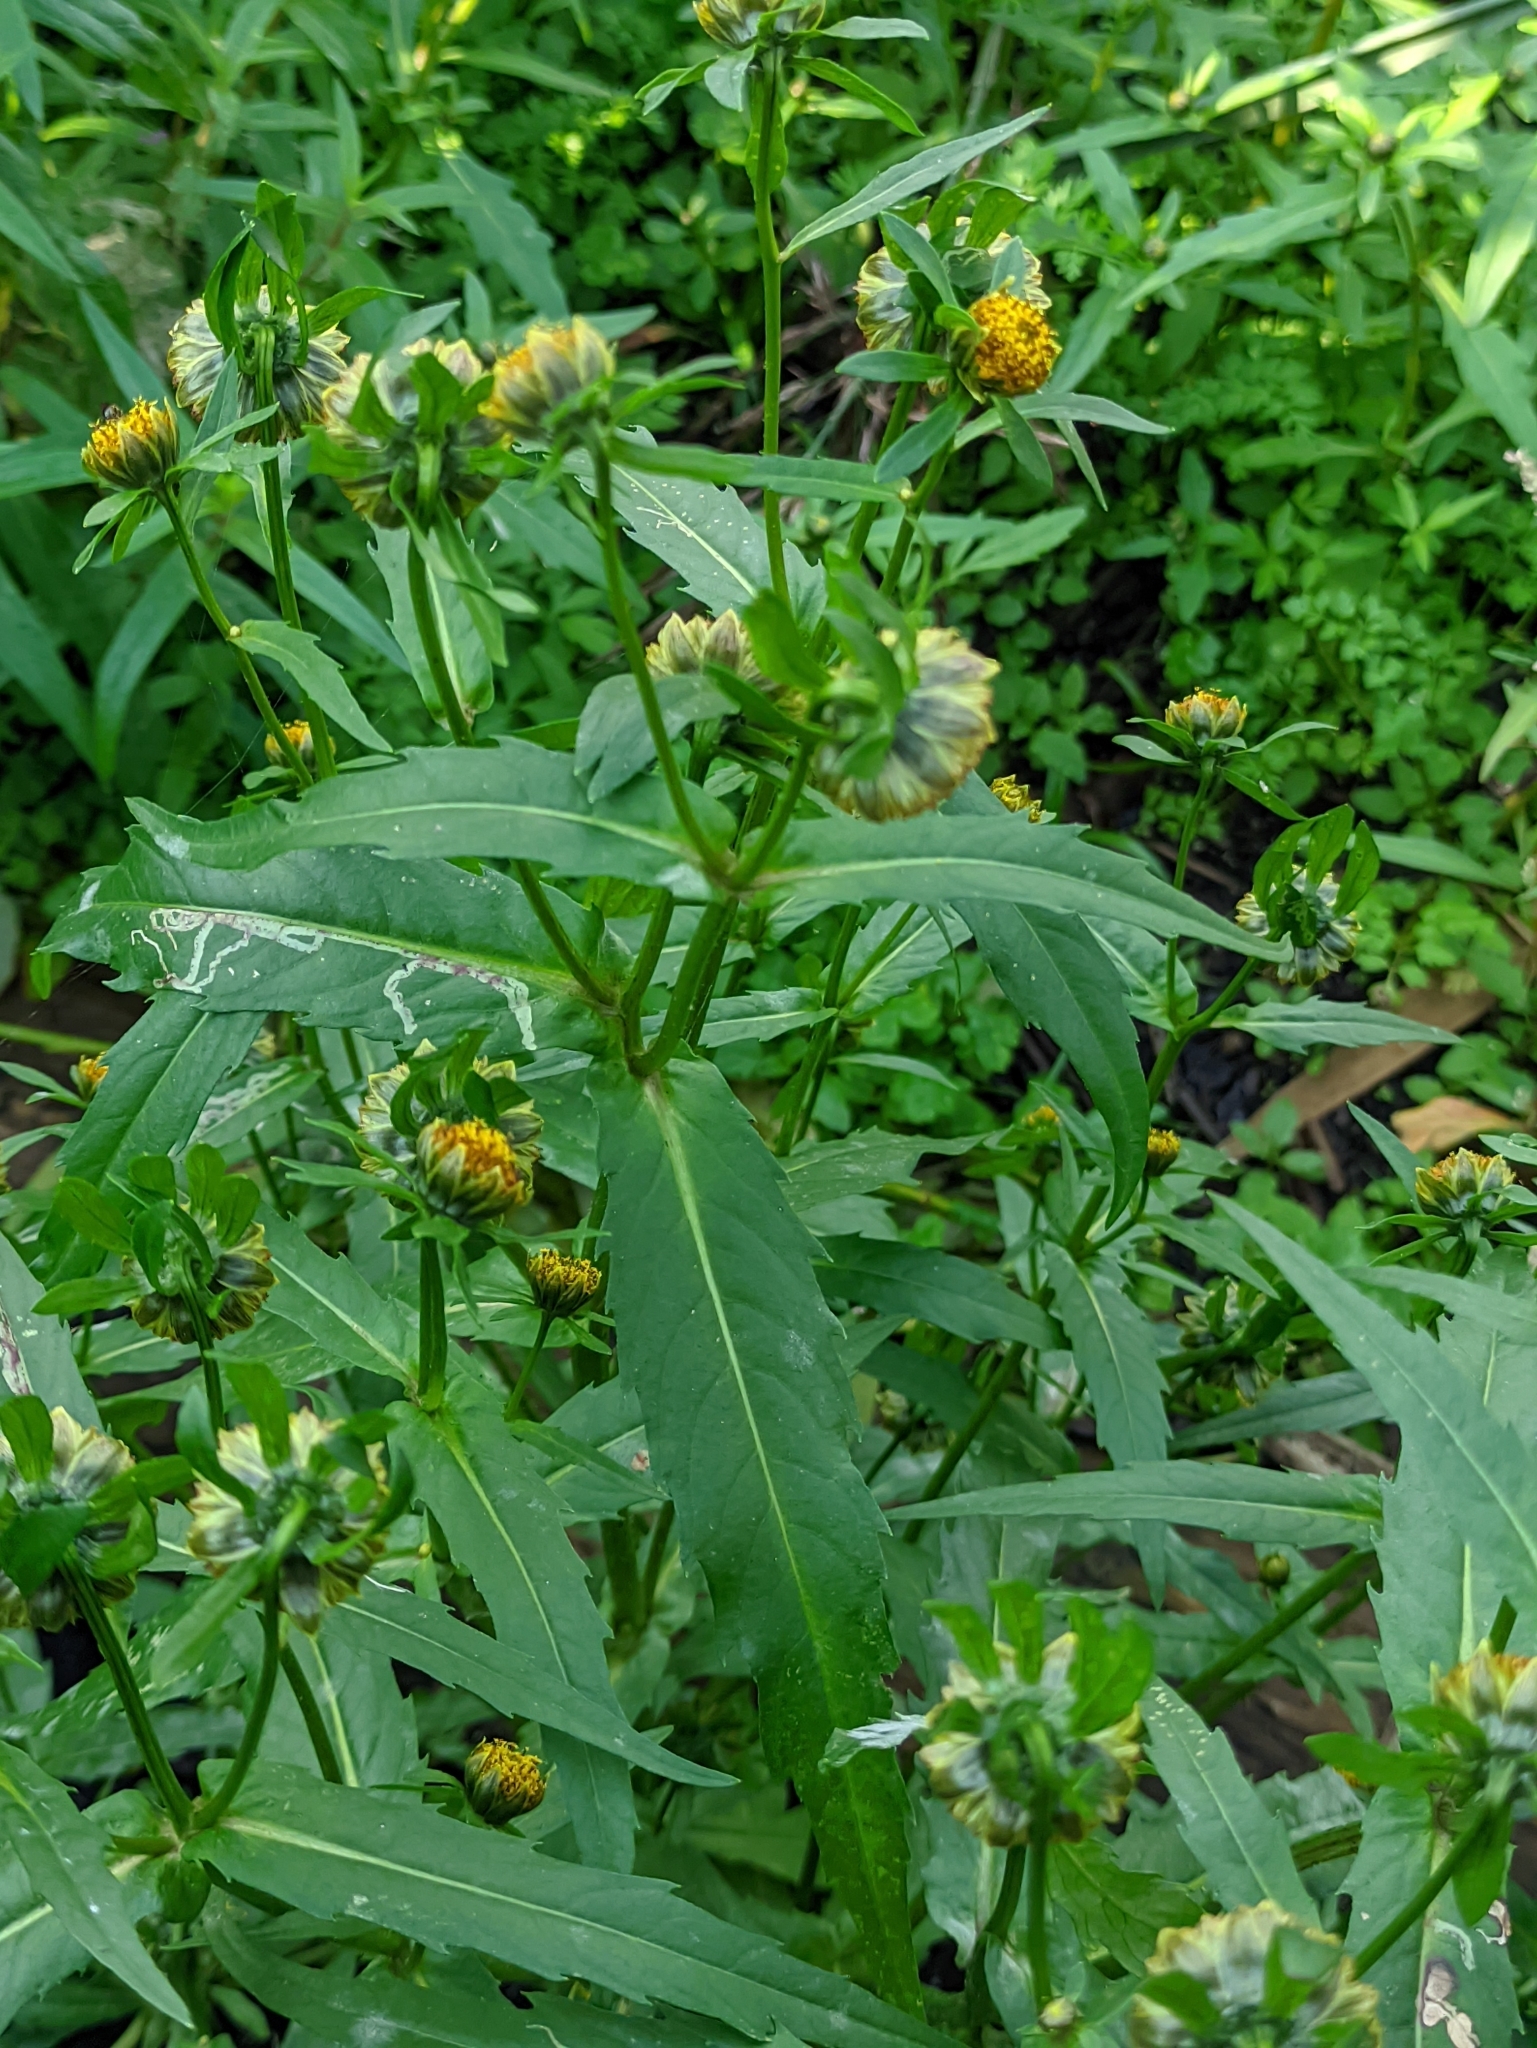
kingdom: Plantae
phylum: Tracheophyta
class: Magnoliopsida
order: Asterales
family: Asteraceae
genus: Bidens
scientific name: Bidens cernua
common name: Nodding bur-marigold
